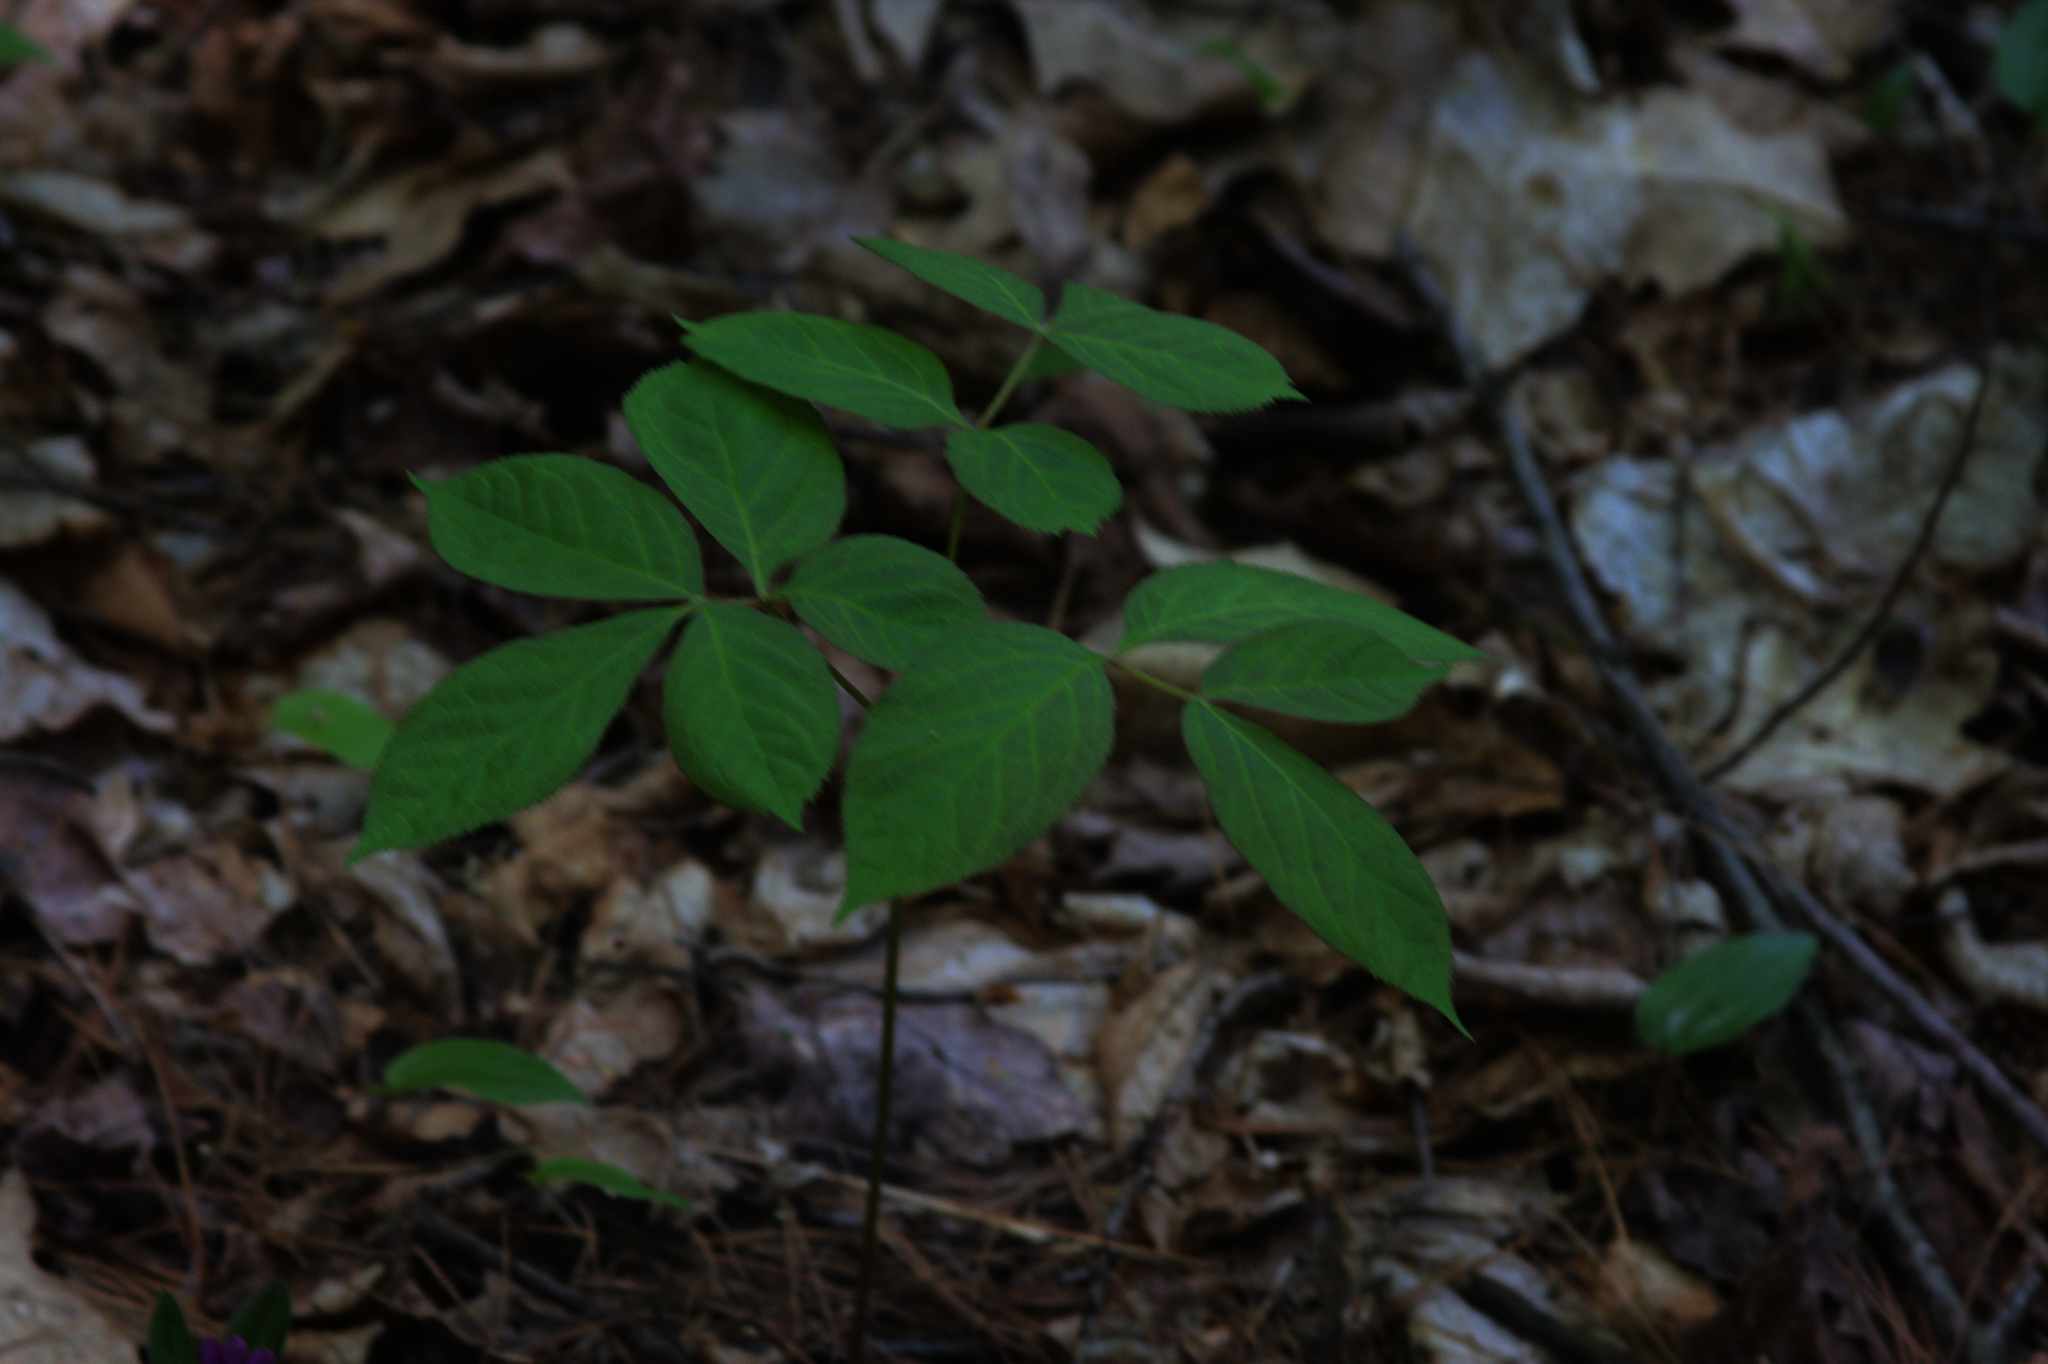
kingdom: Plantae
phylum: Tracheophyta
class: Magnoliopsida
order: Apiales
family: Araliaceae
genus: Aralia
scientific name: Aralia nudicaulis
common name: Wild sarsaparilla
